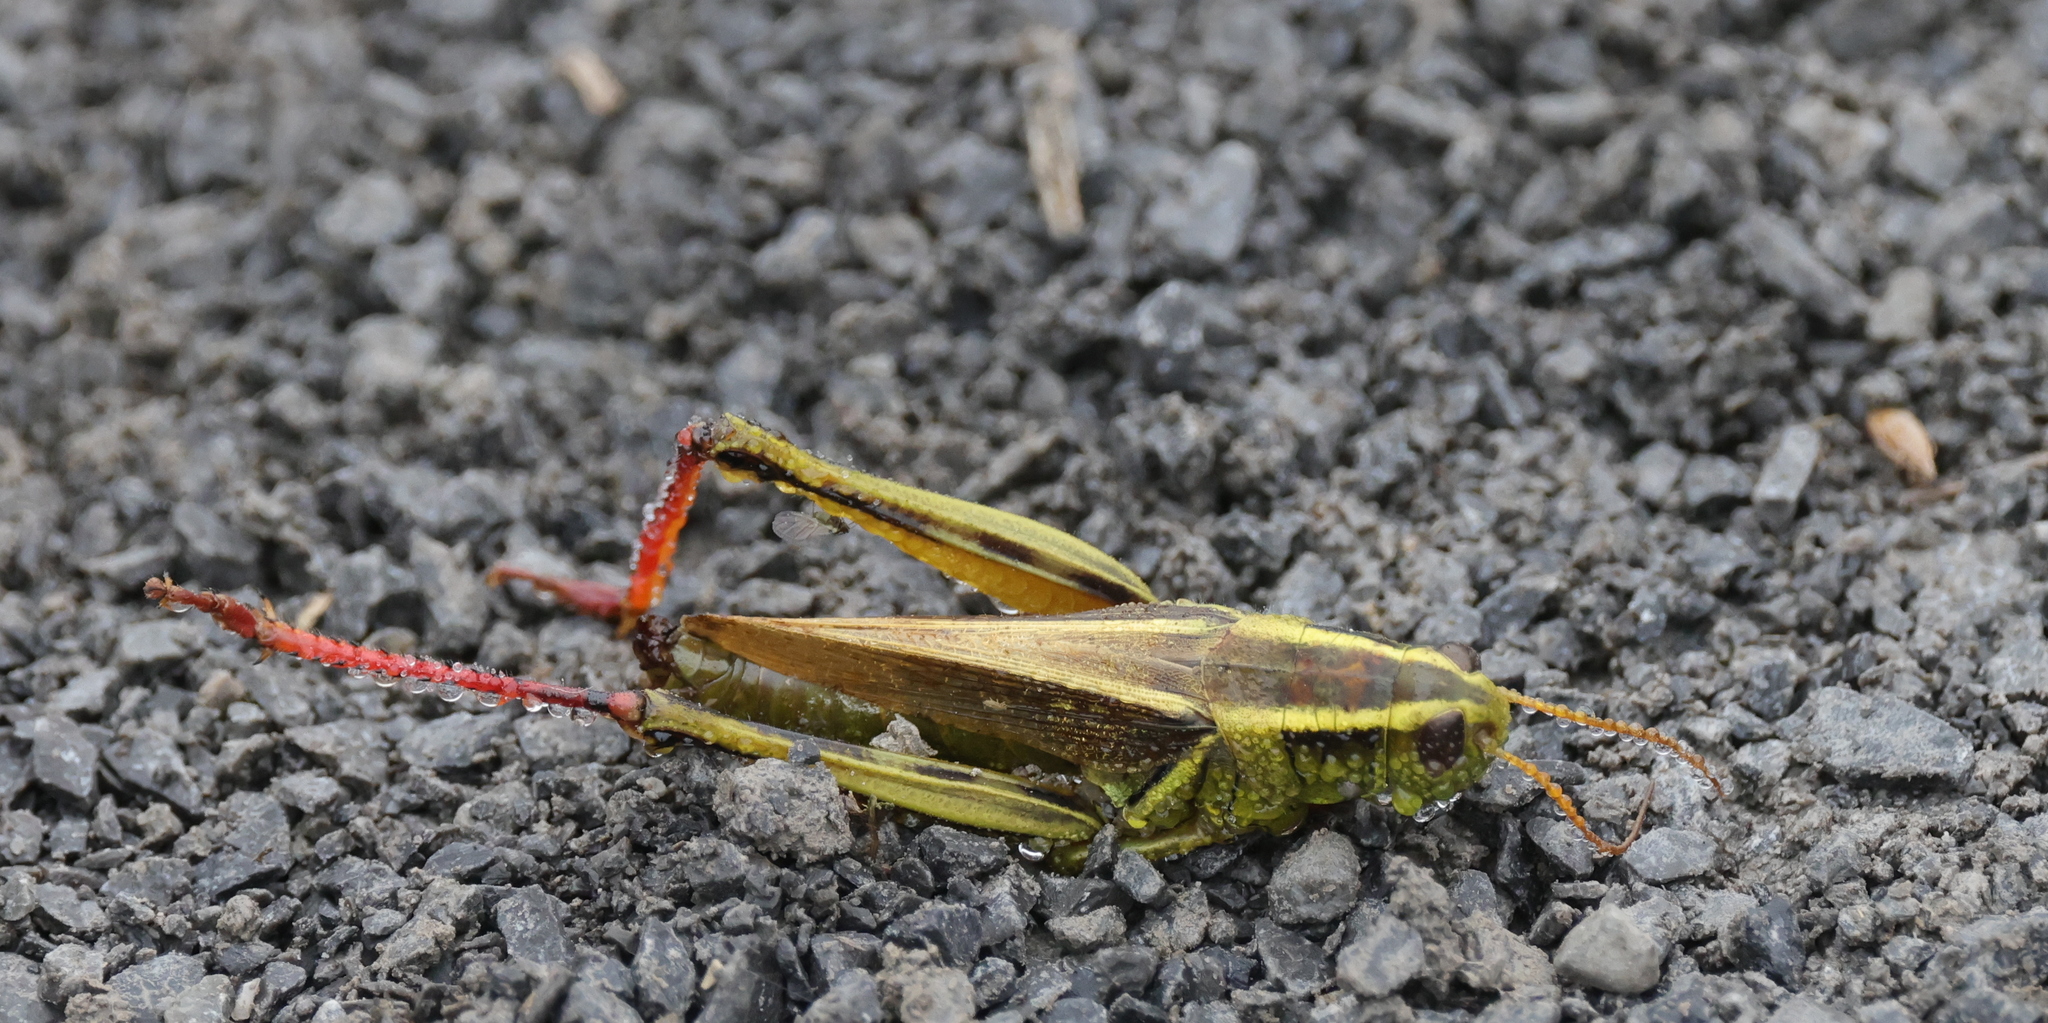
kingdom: Animalia
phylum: Arthropoda
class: Insecta
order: Orthoptera
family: Acrididae
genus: Melanoplus
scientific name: Melanoplus bivittatus
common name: Two-striped grasshopper
